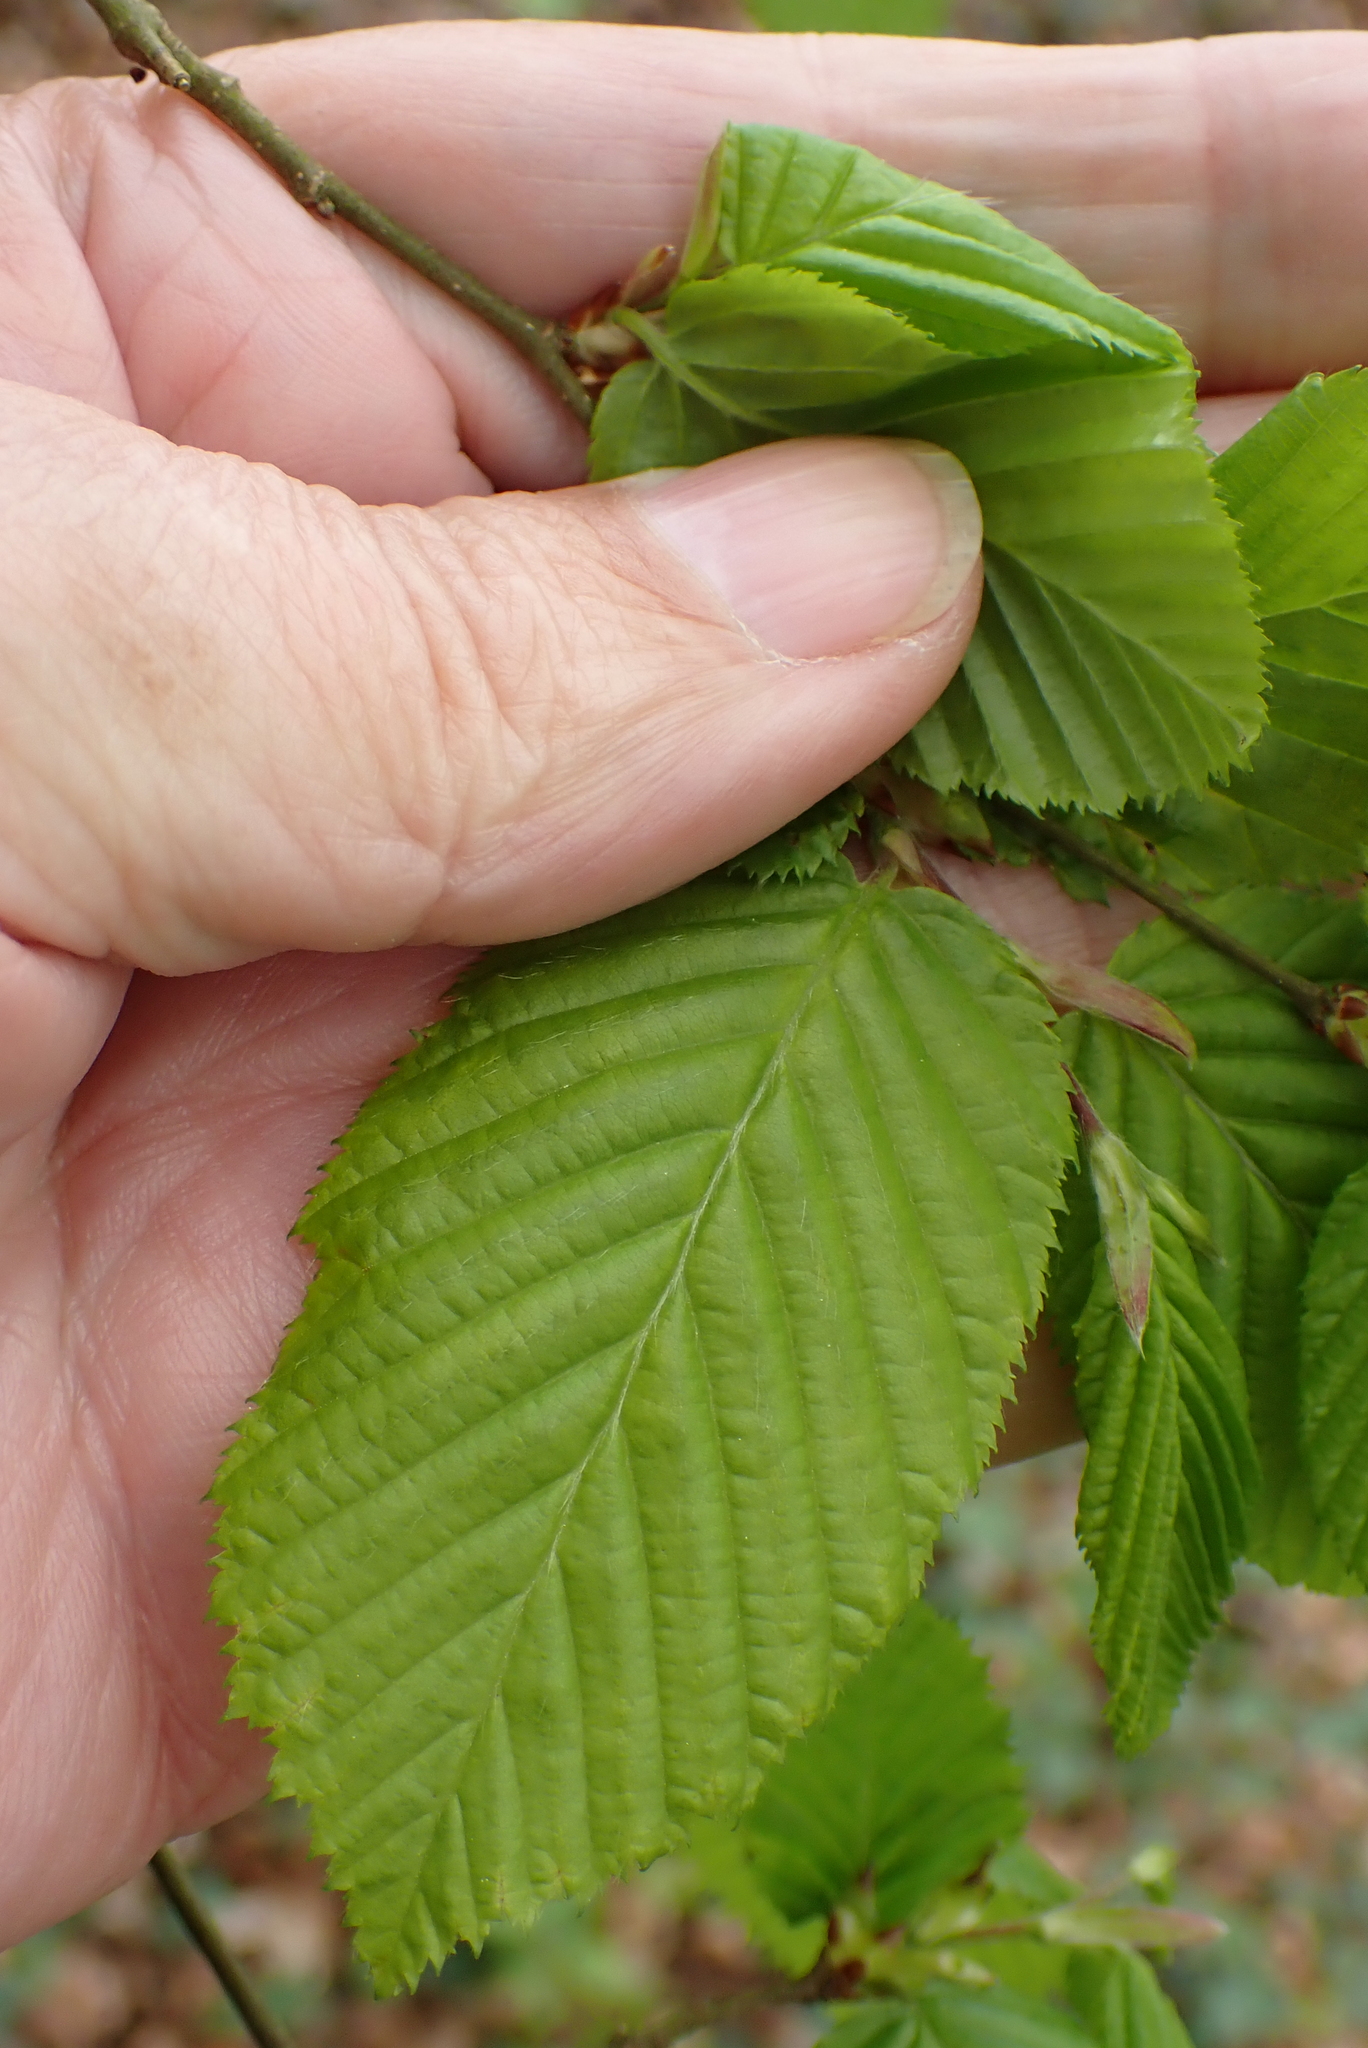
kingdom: Plantae
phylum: Tracheophyta
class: Magnoliopsida
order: Fagales
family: Betulaceae
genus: Carpinus
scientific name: Carpinus betulus
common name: Hornbeam
